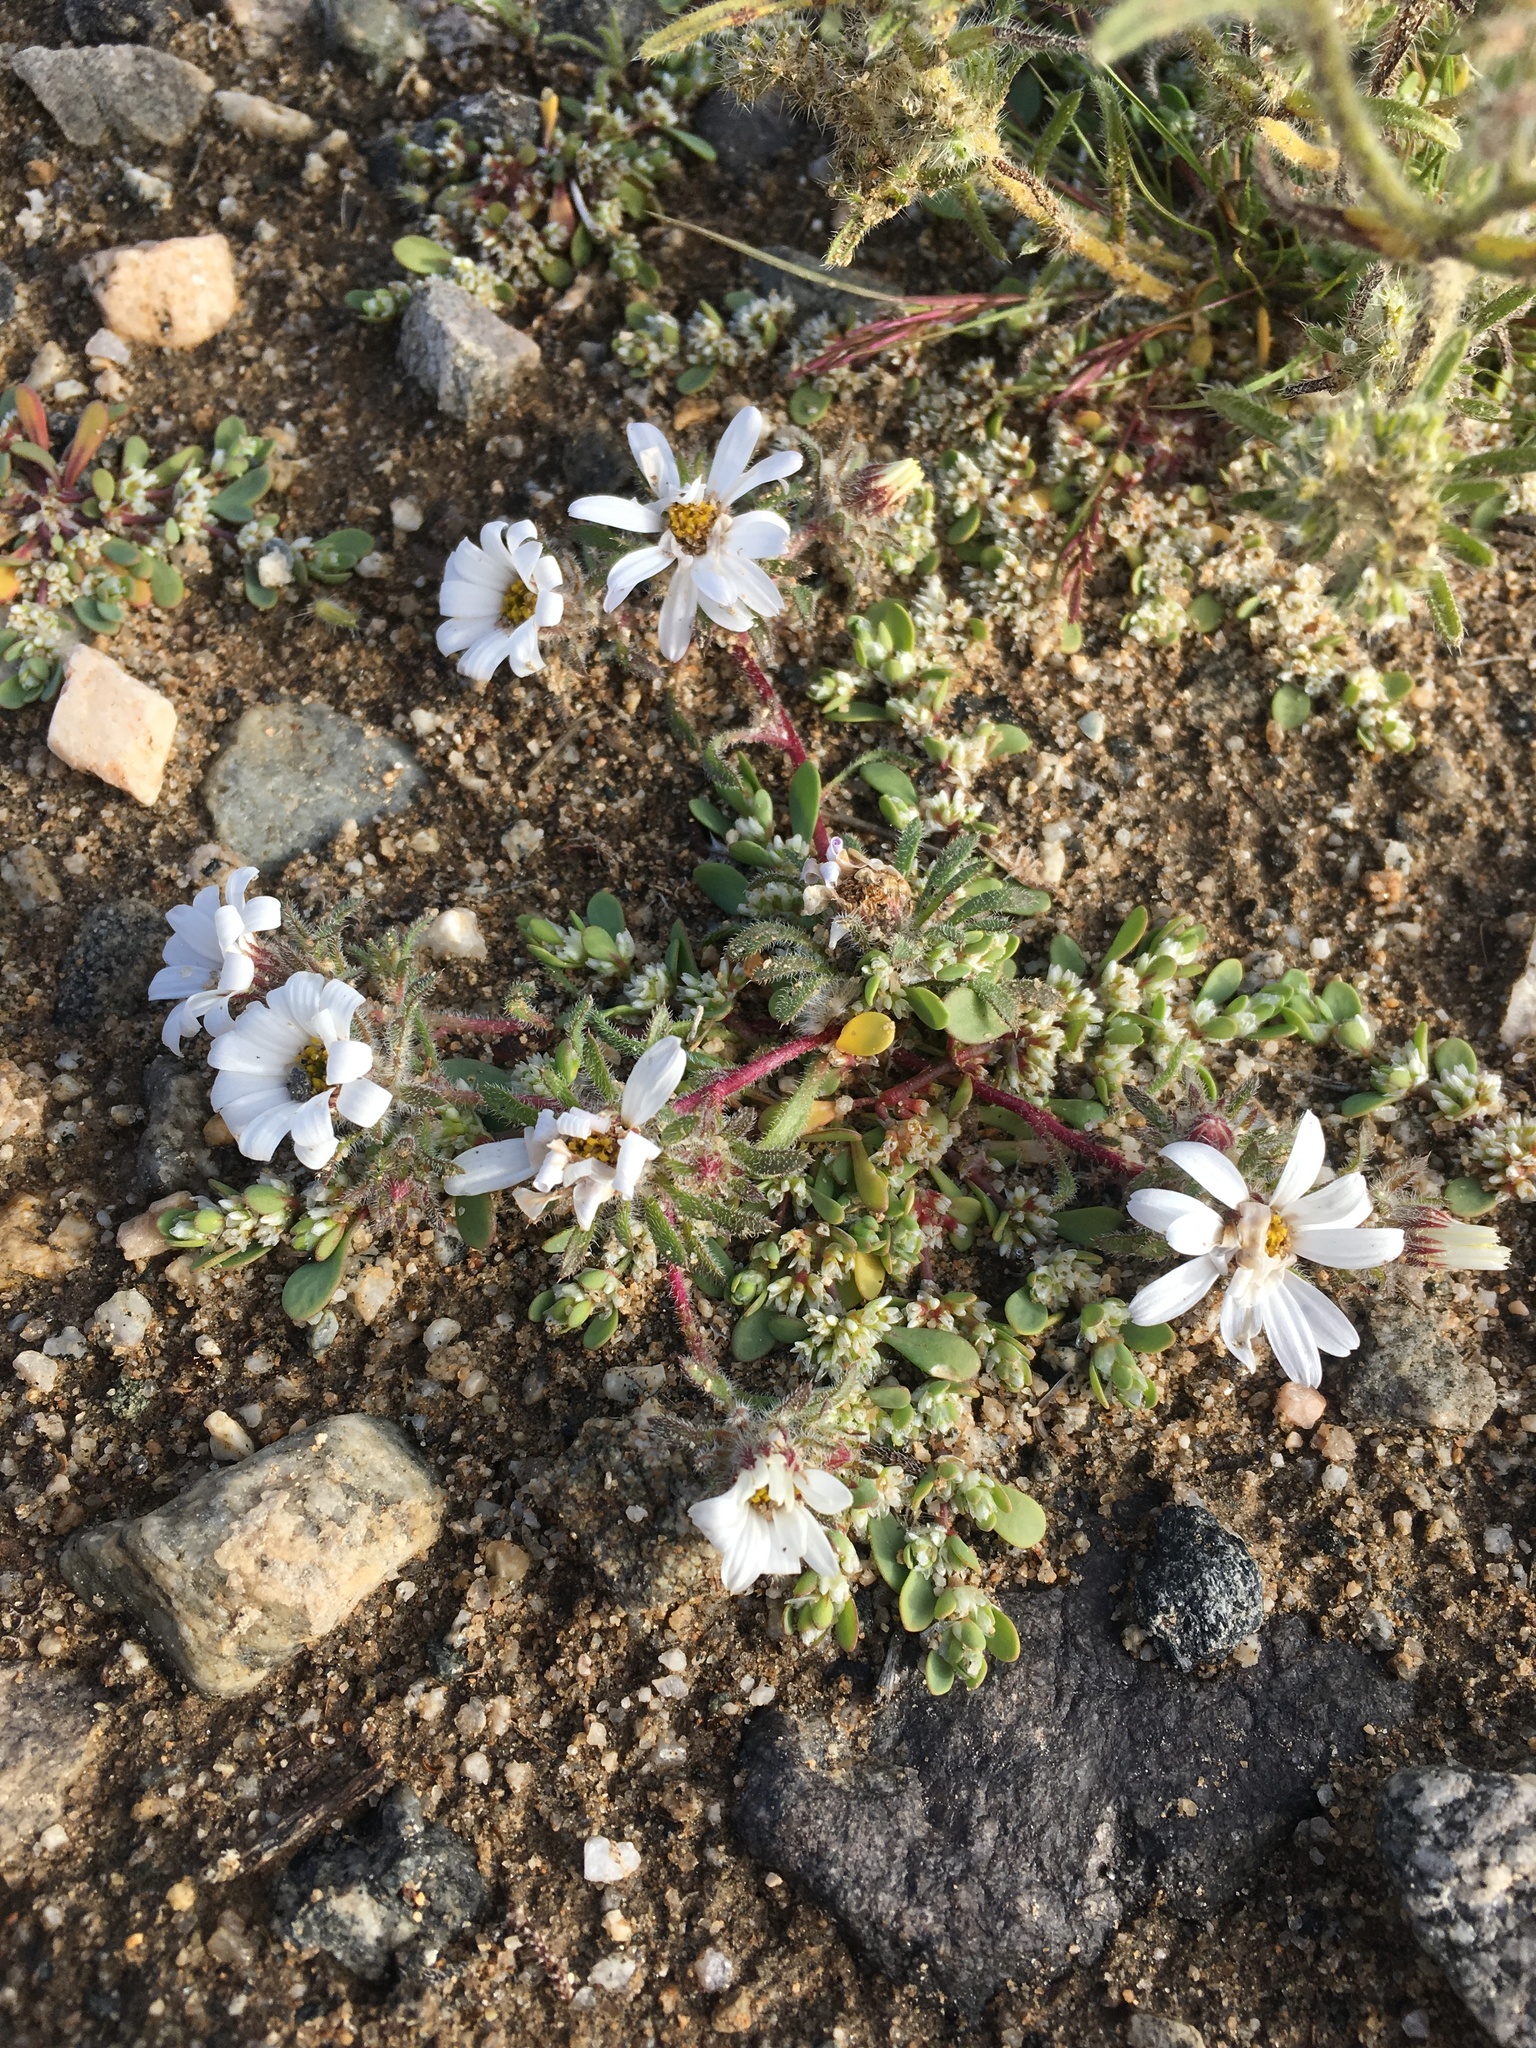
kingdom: Plantae
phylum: Tracheophyta
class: Magnoliopsida
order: Asterales
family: Asteraceae
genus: Monoptilon
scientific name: Monoptilon bellioides
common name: Bristly desertstar
